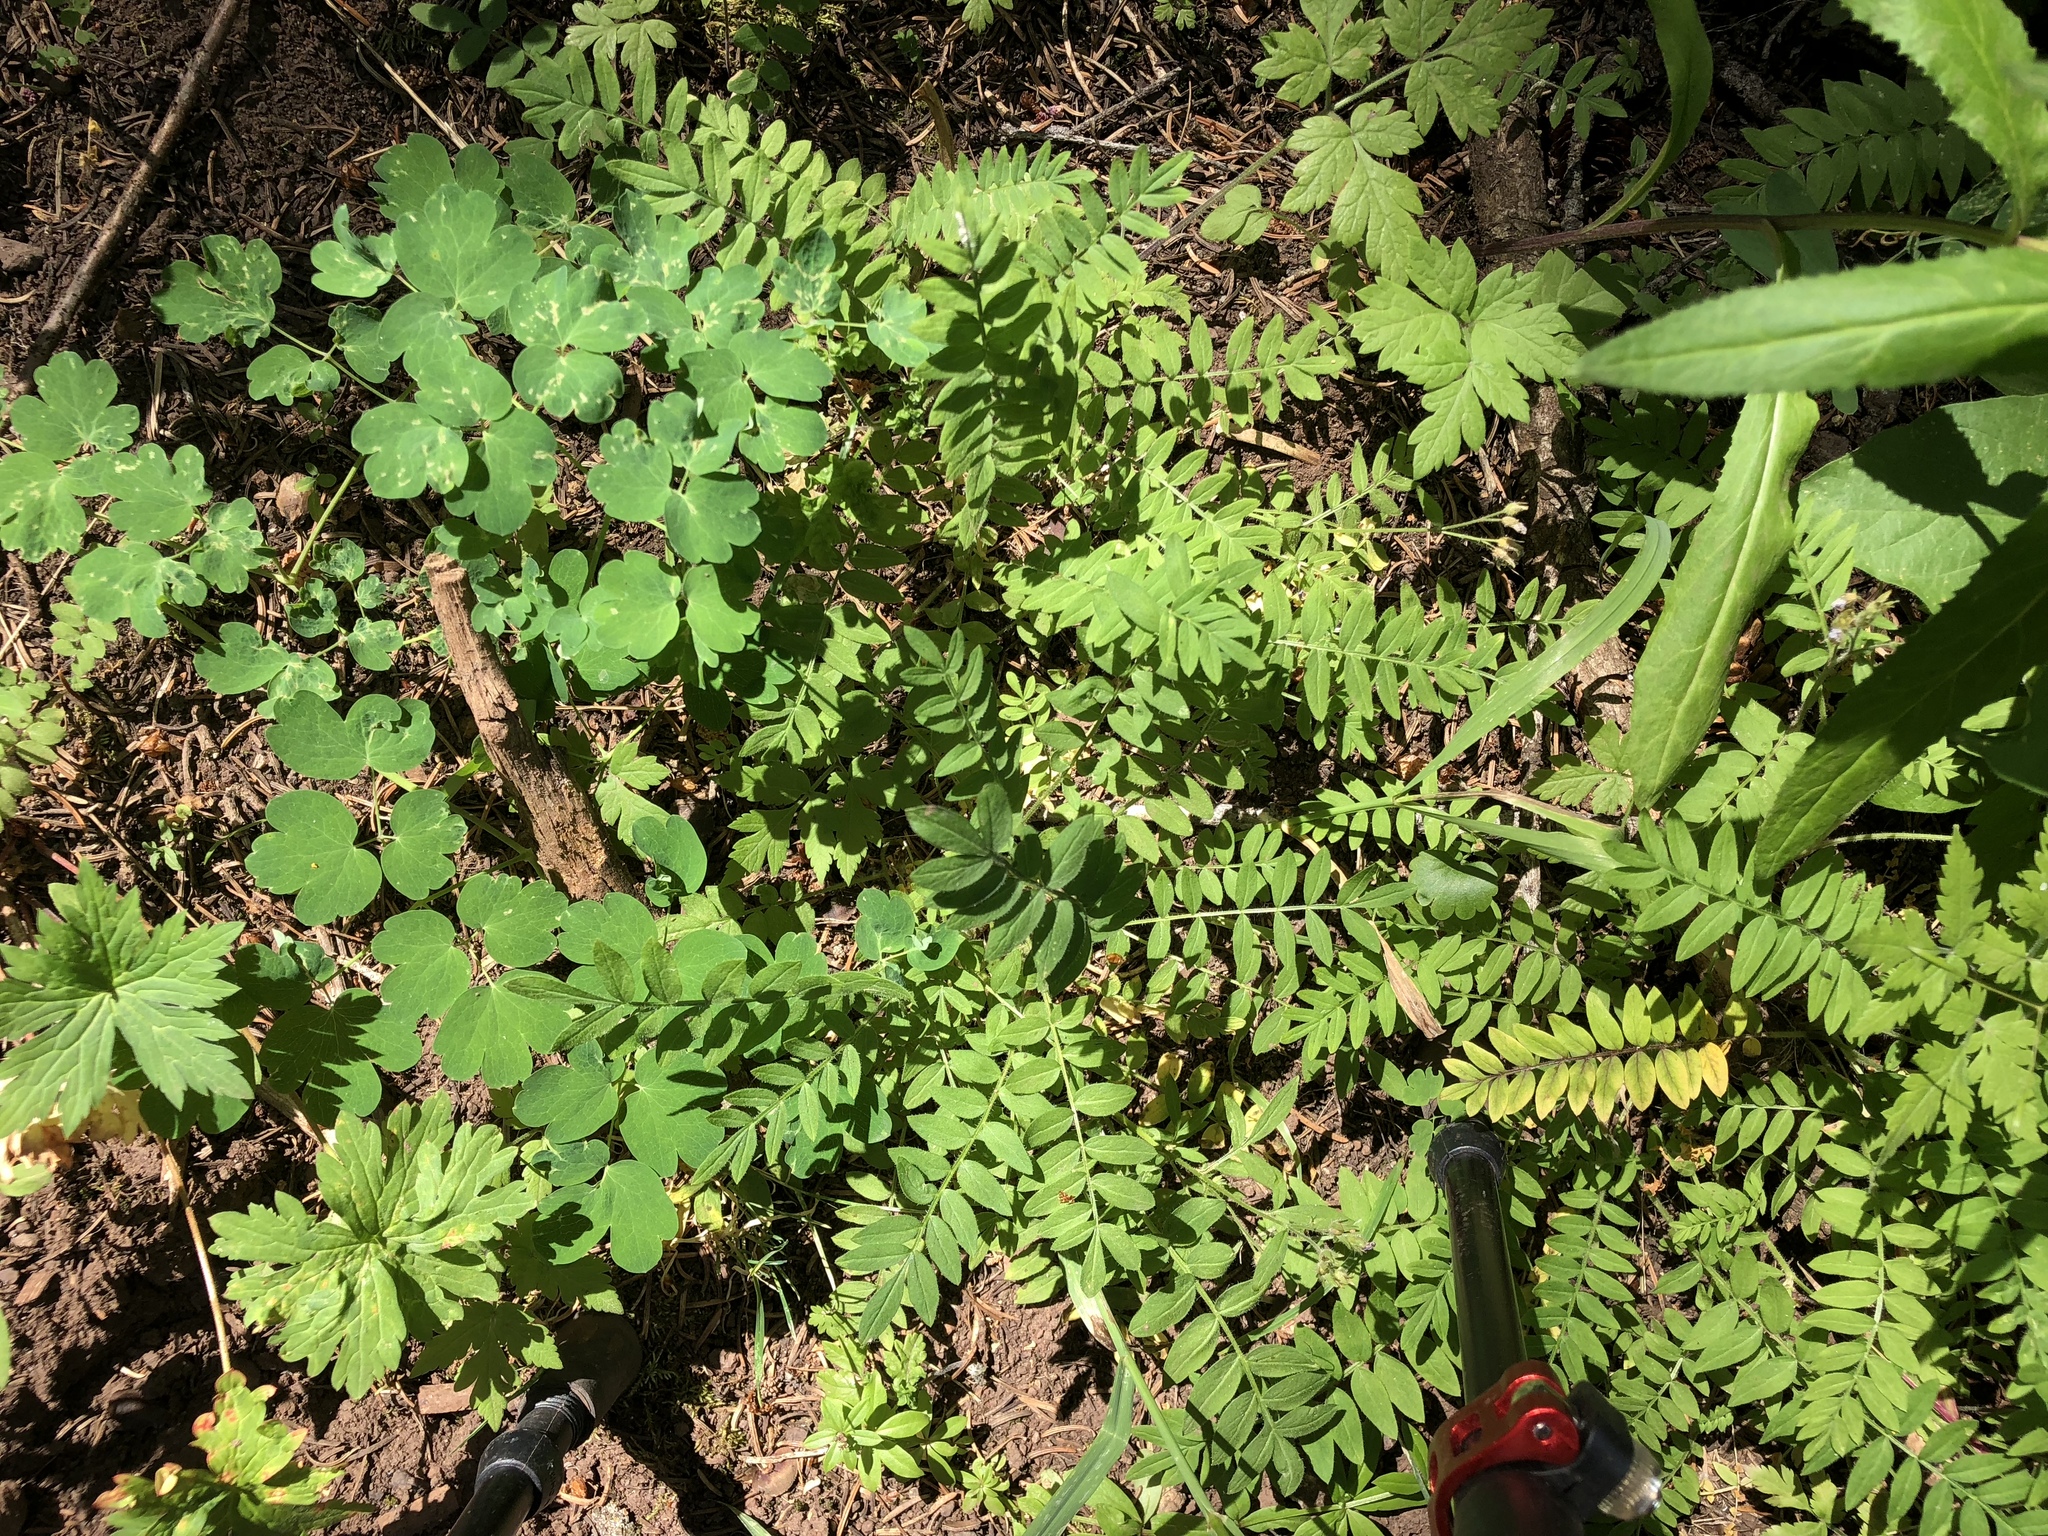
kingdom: Plantae
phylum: Tracheophyta
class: Magnoliopsida
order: Ericales
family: Polemoniaceae
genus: Polemonium
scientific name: Polemonium pulcherrimum
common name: Short jacob's-ladder
